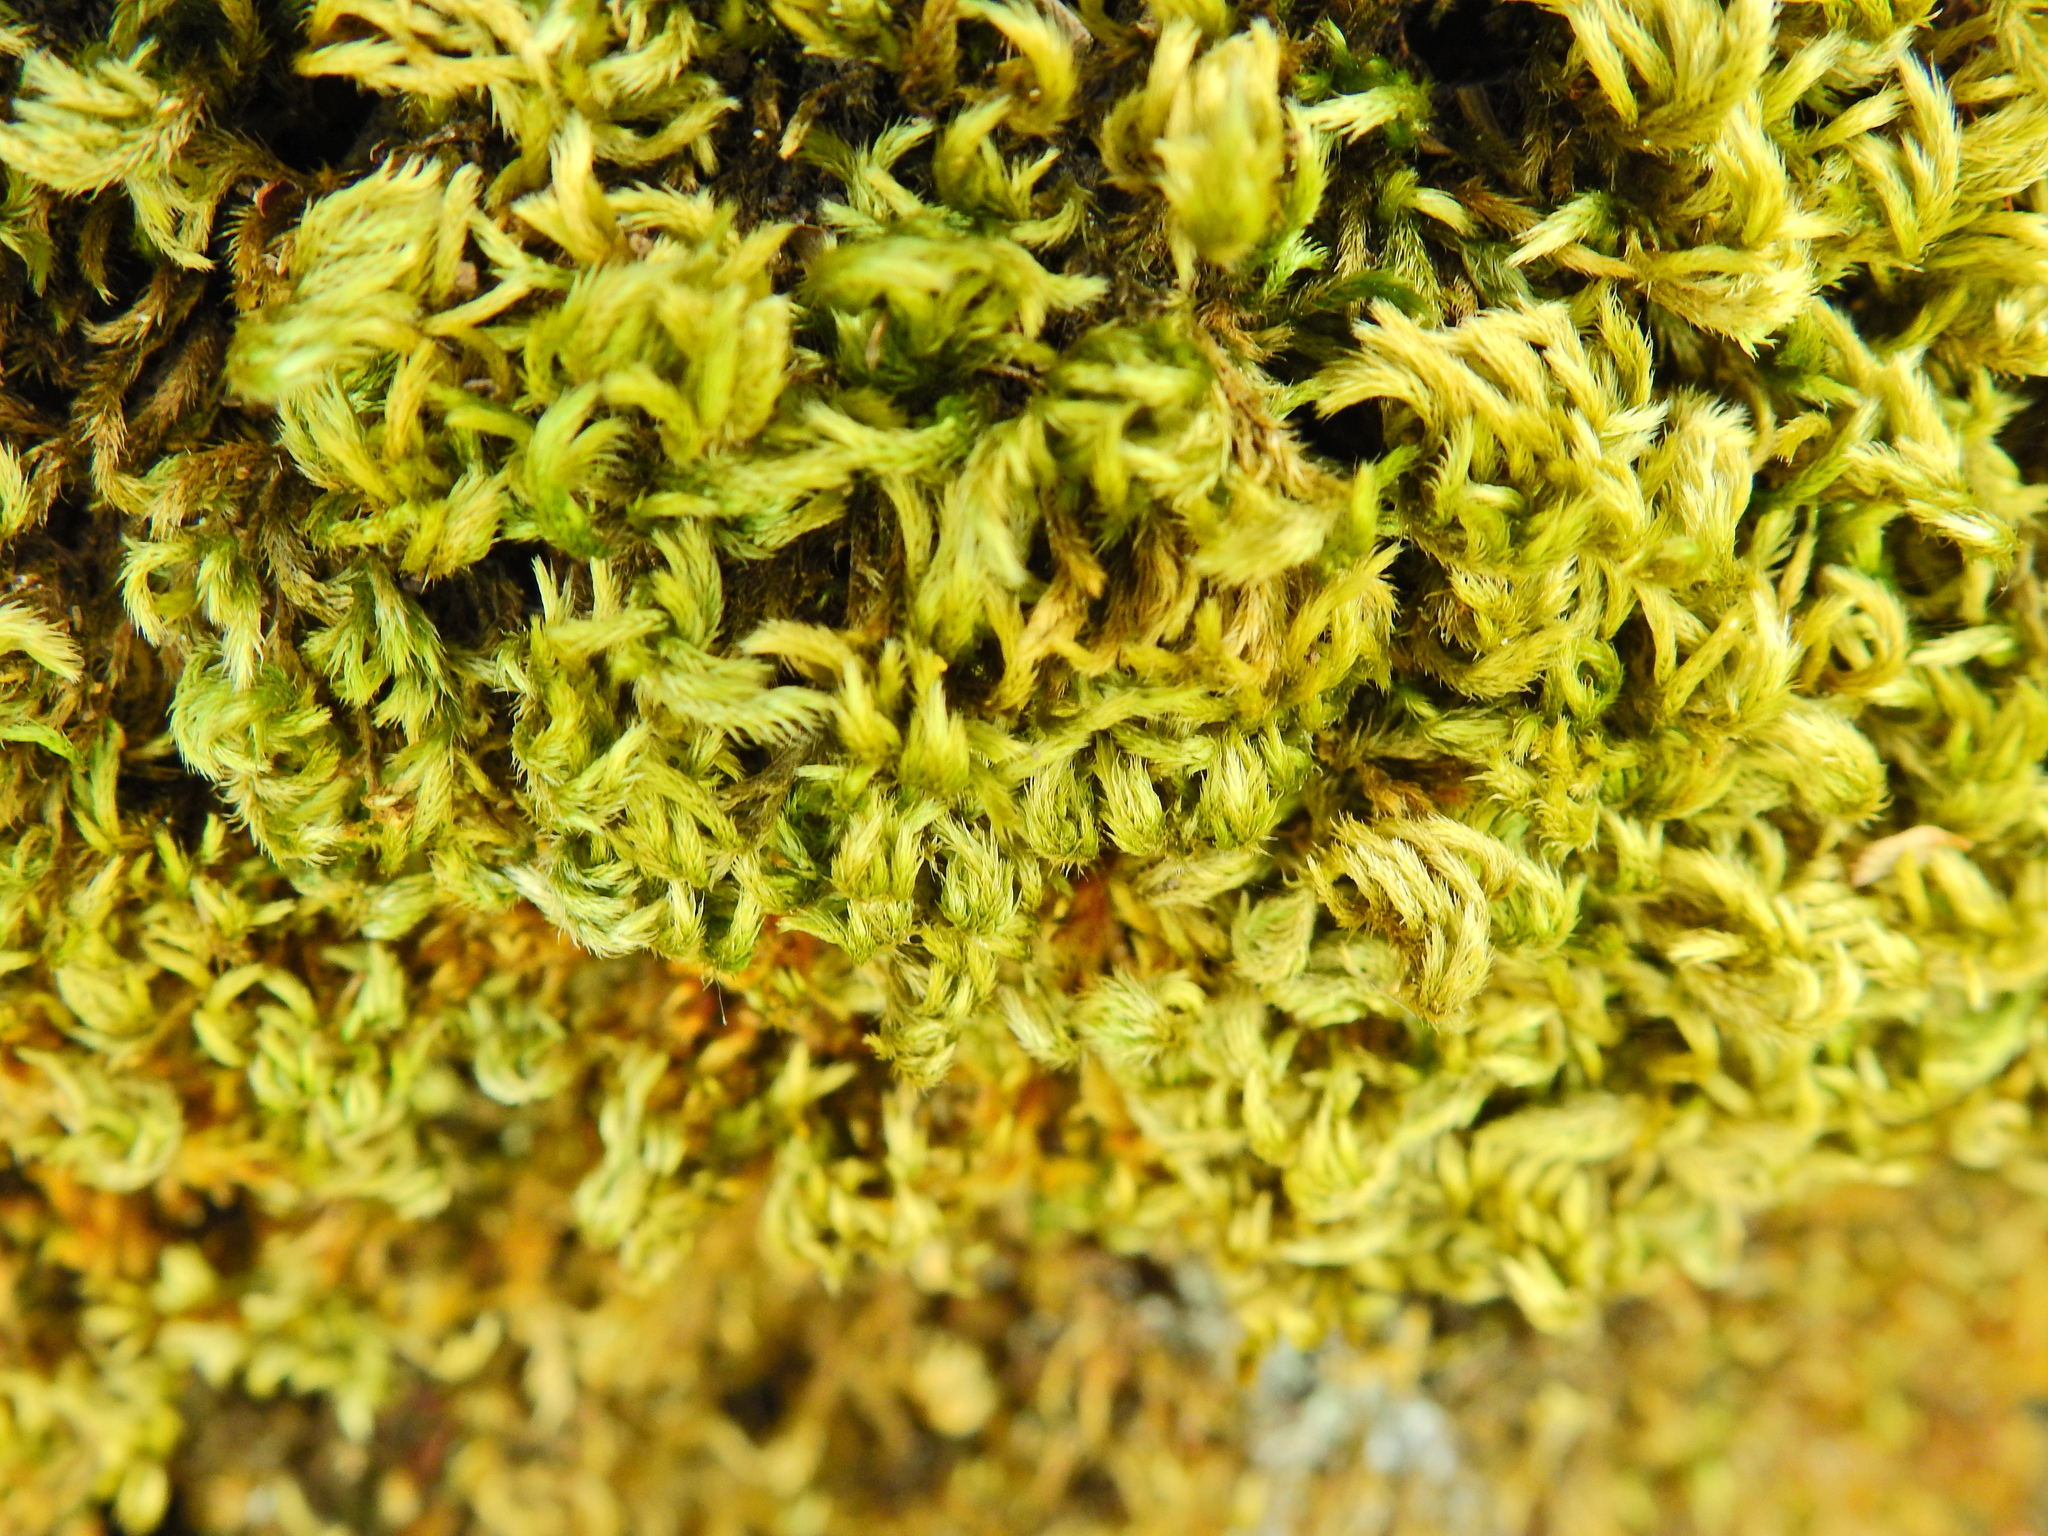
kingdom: Plantae
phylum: Bryophyta
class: Bryopsida
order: Hypnales
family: Brachytheciaceae
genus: Homalothecium
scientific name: Homalothecium sericeum
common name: Silky wall feather-moss
